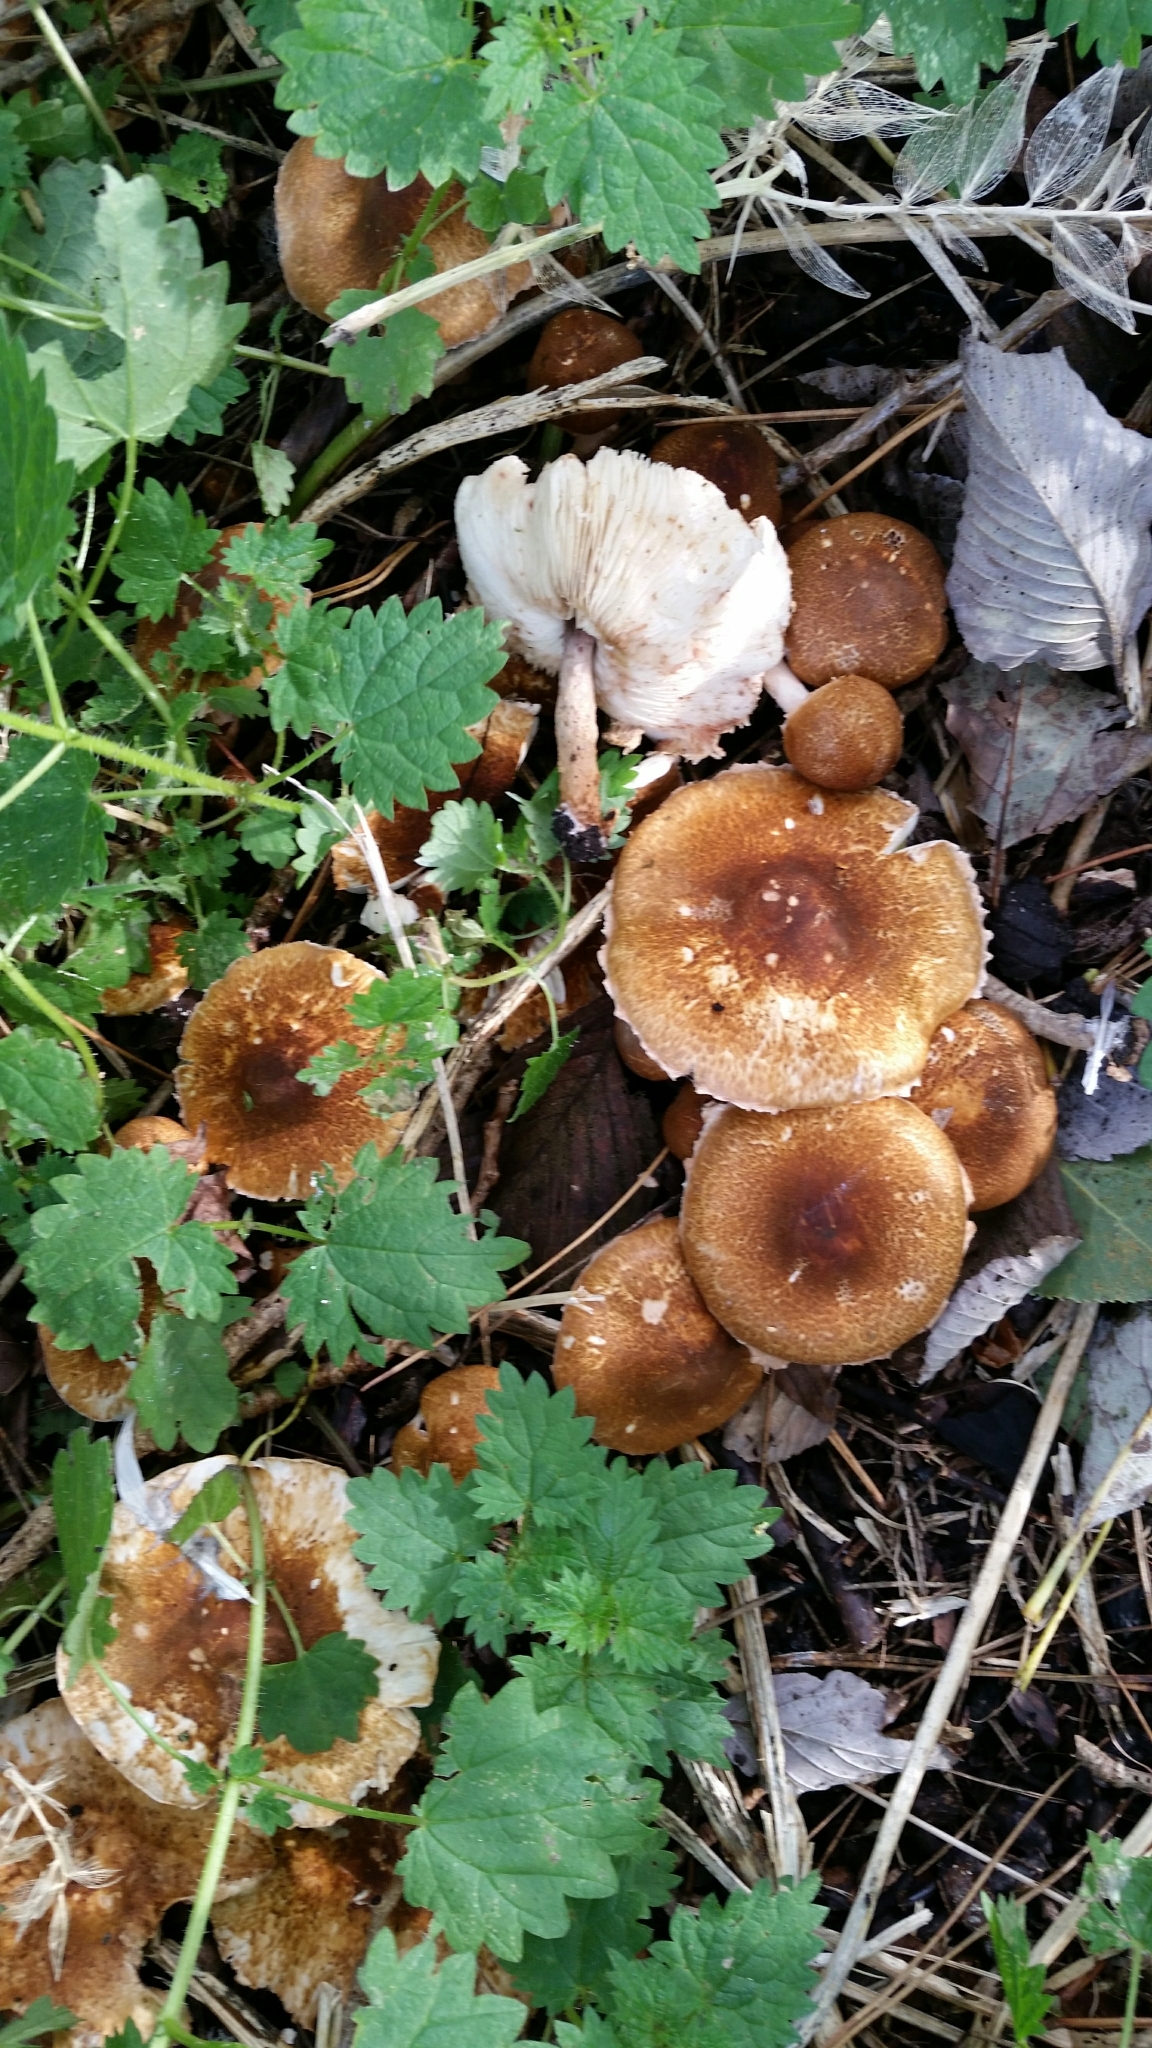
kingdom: Fungi
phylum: Basidiomycota
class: Agaricomycetes
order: Agaricales
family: Agaricaceae
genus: Lepiota
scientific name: Lepiota boudieri
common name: Girdled dapperling
